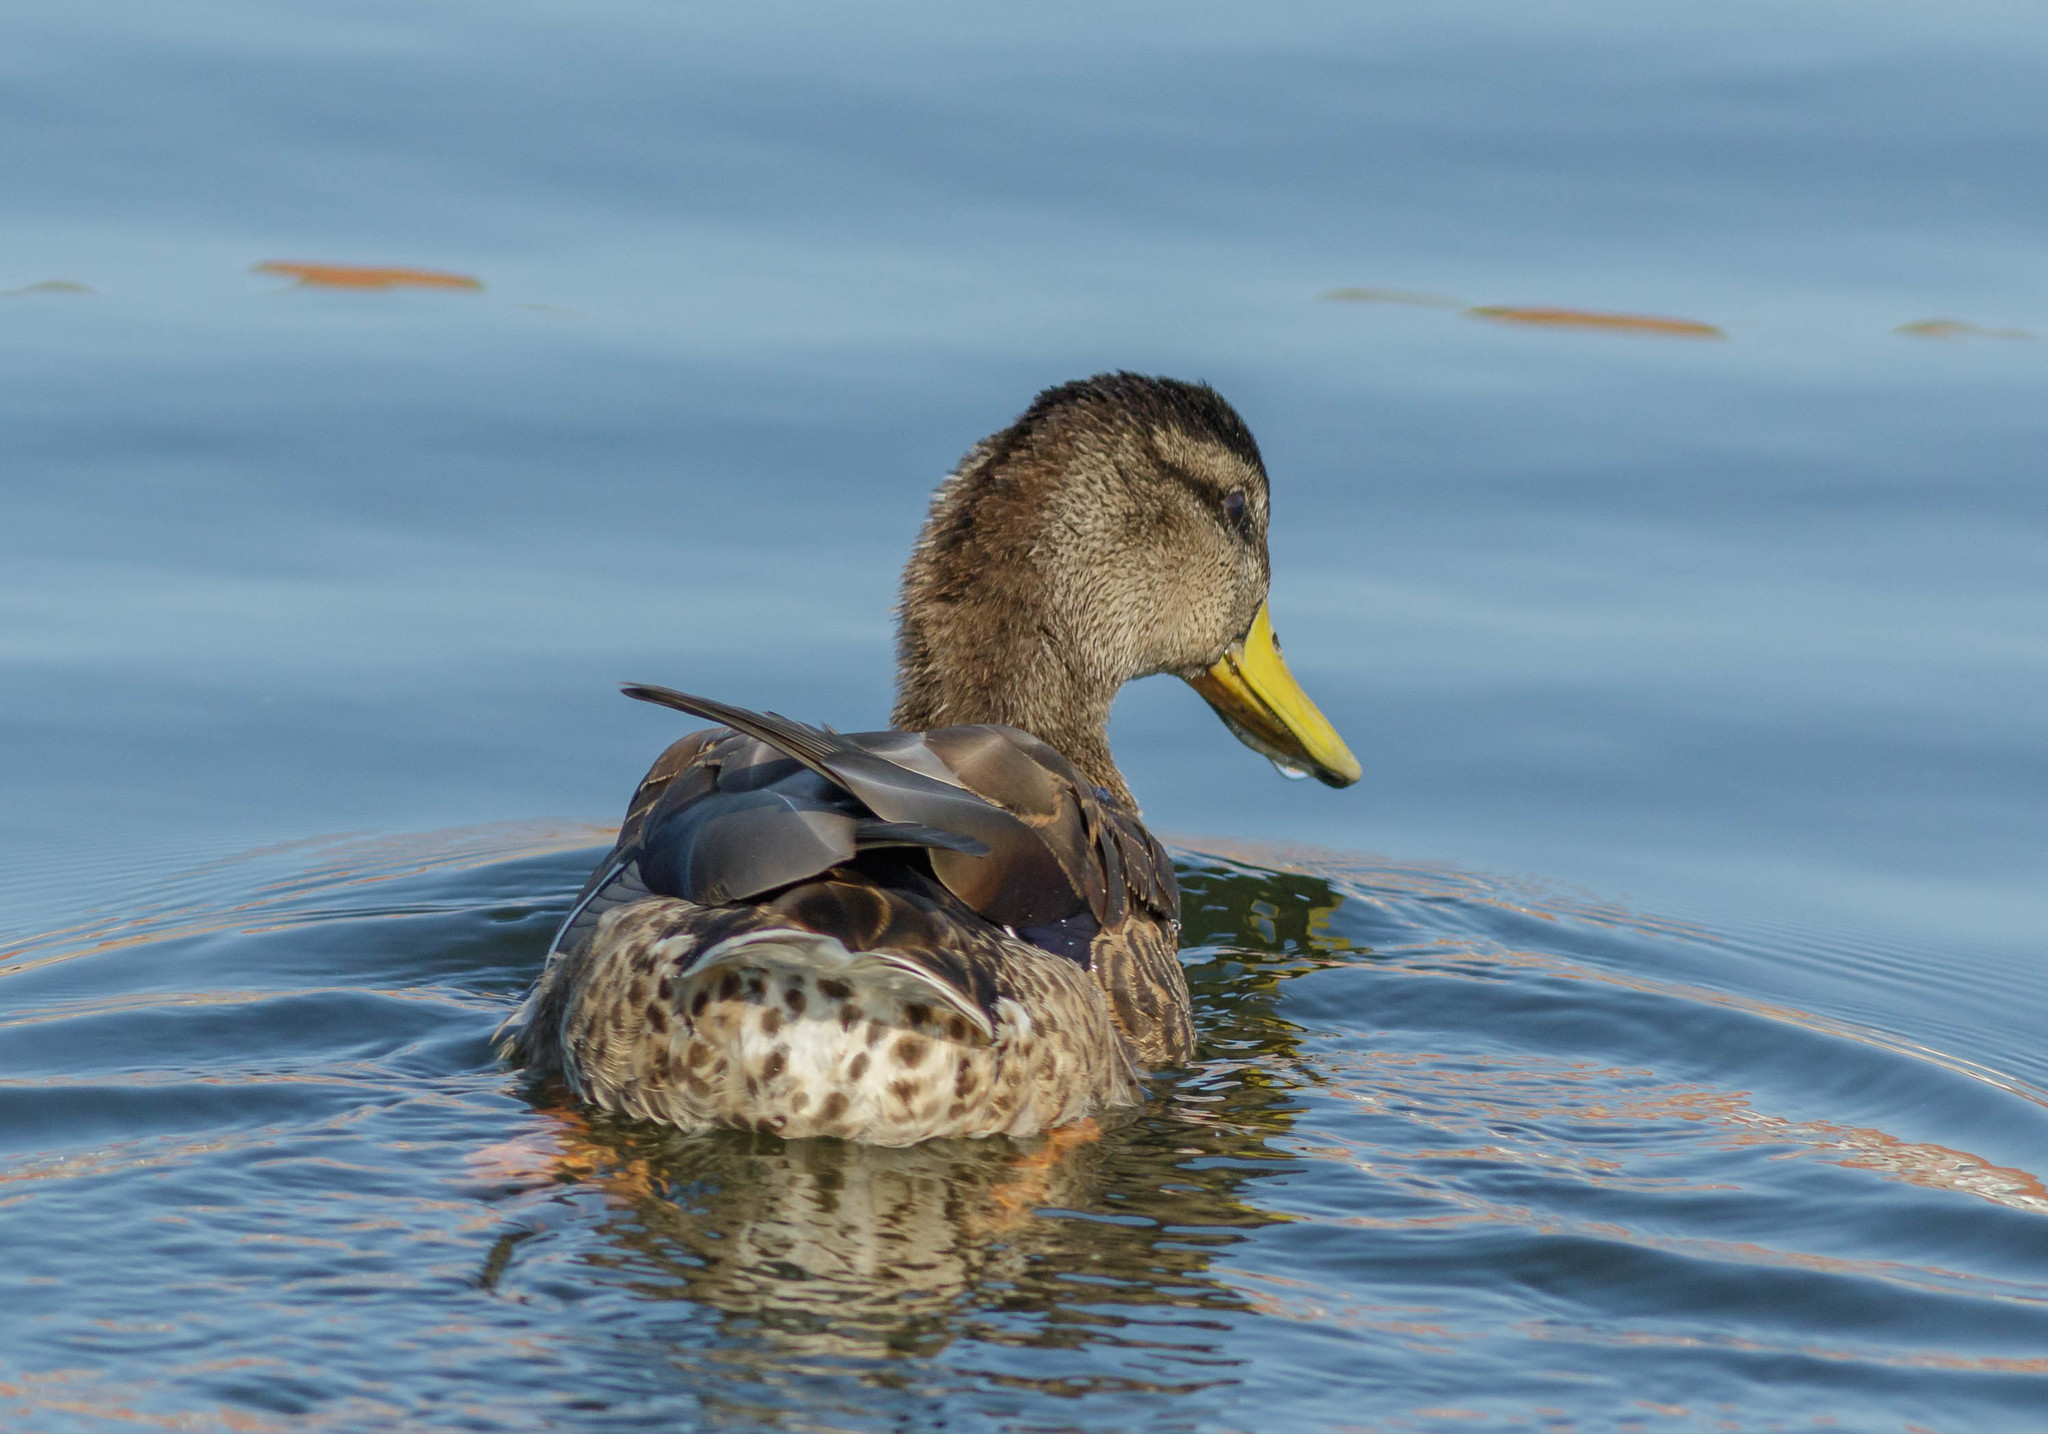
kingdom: Animalia
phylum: Chordata
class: Aves
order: Anseriformes
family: Anatidae
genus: Anas
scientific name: Anas platyrhynchos
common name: Mallard
